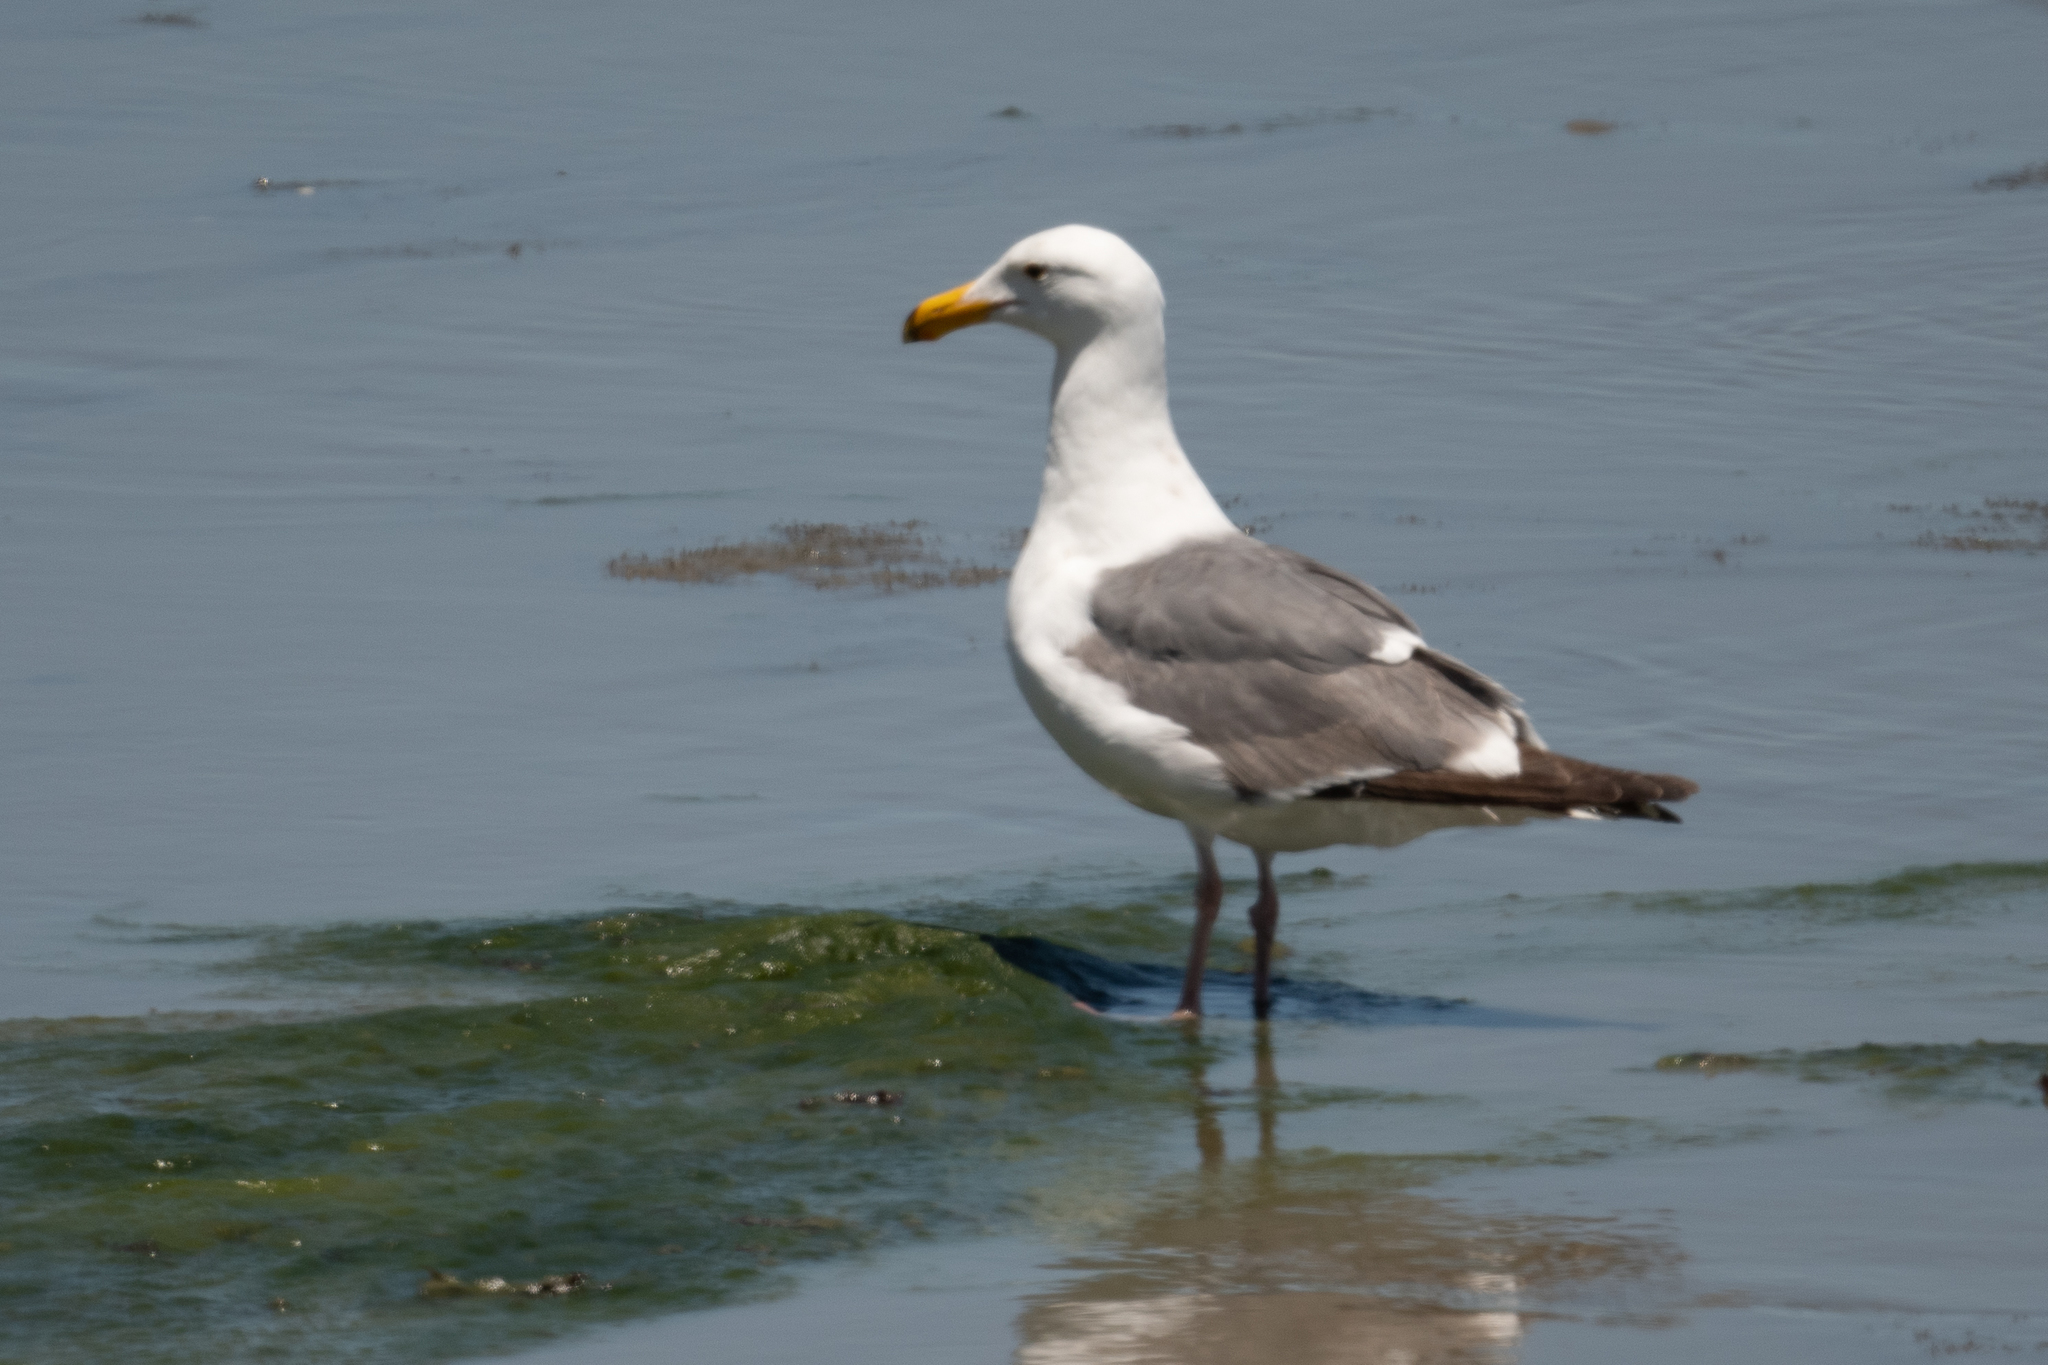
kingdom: Animalia
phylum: Chordata
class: Aves
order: Charadriiformes
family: Laridae
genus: Larus
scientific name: Larus occidentalis
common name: Western gull
